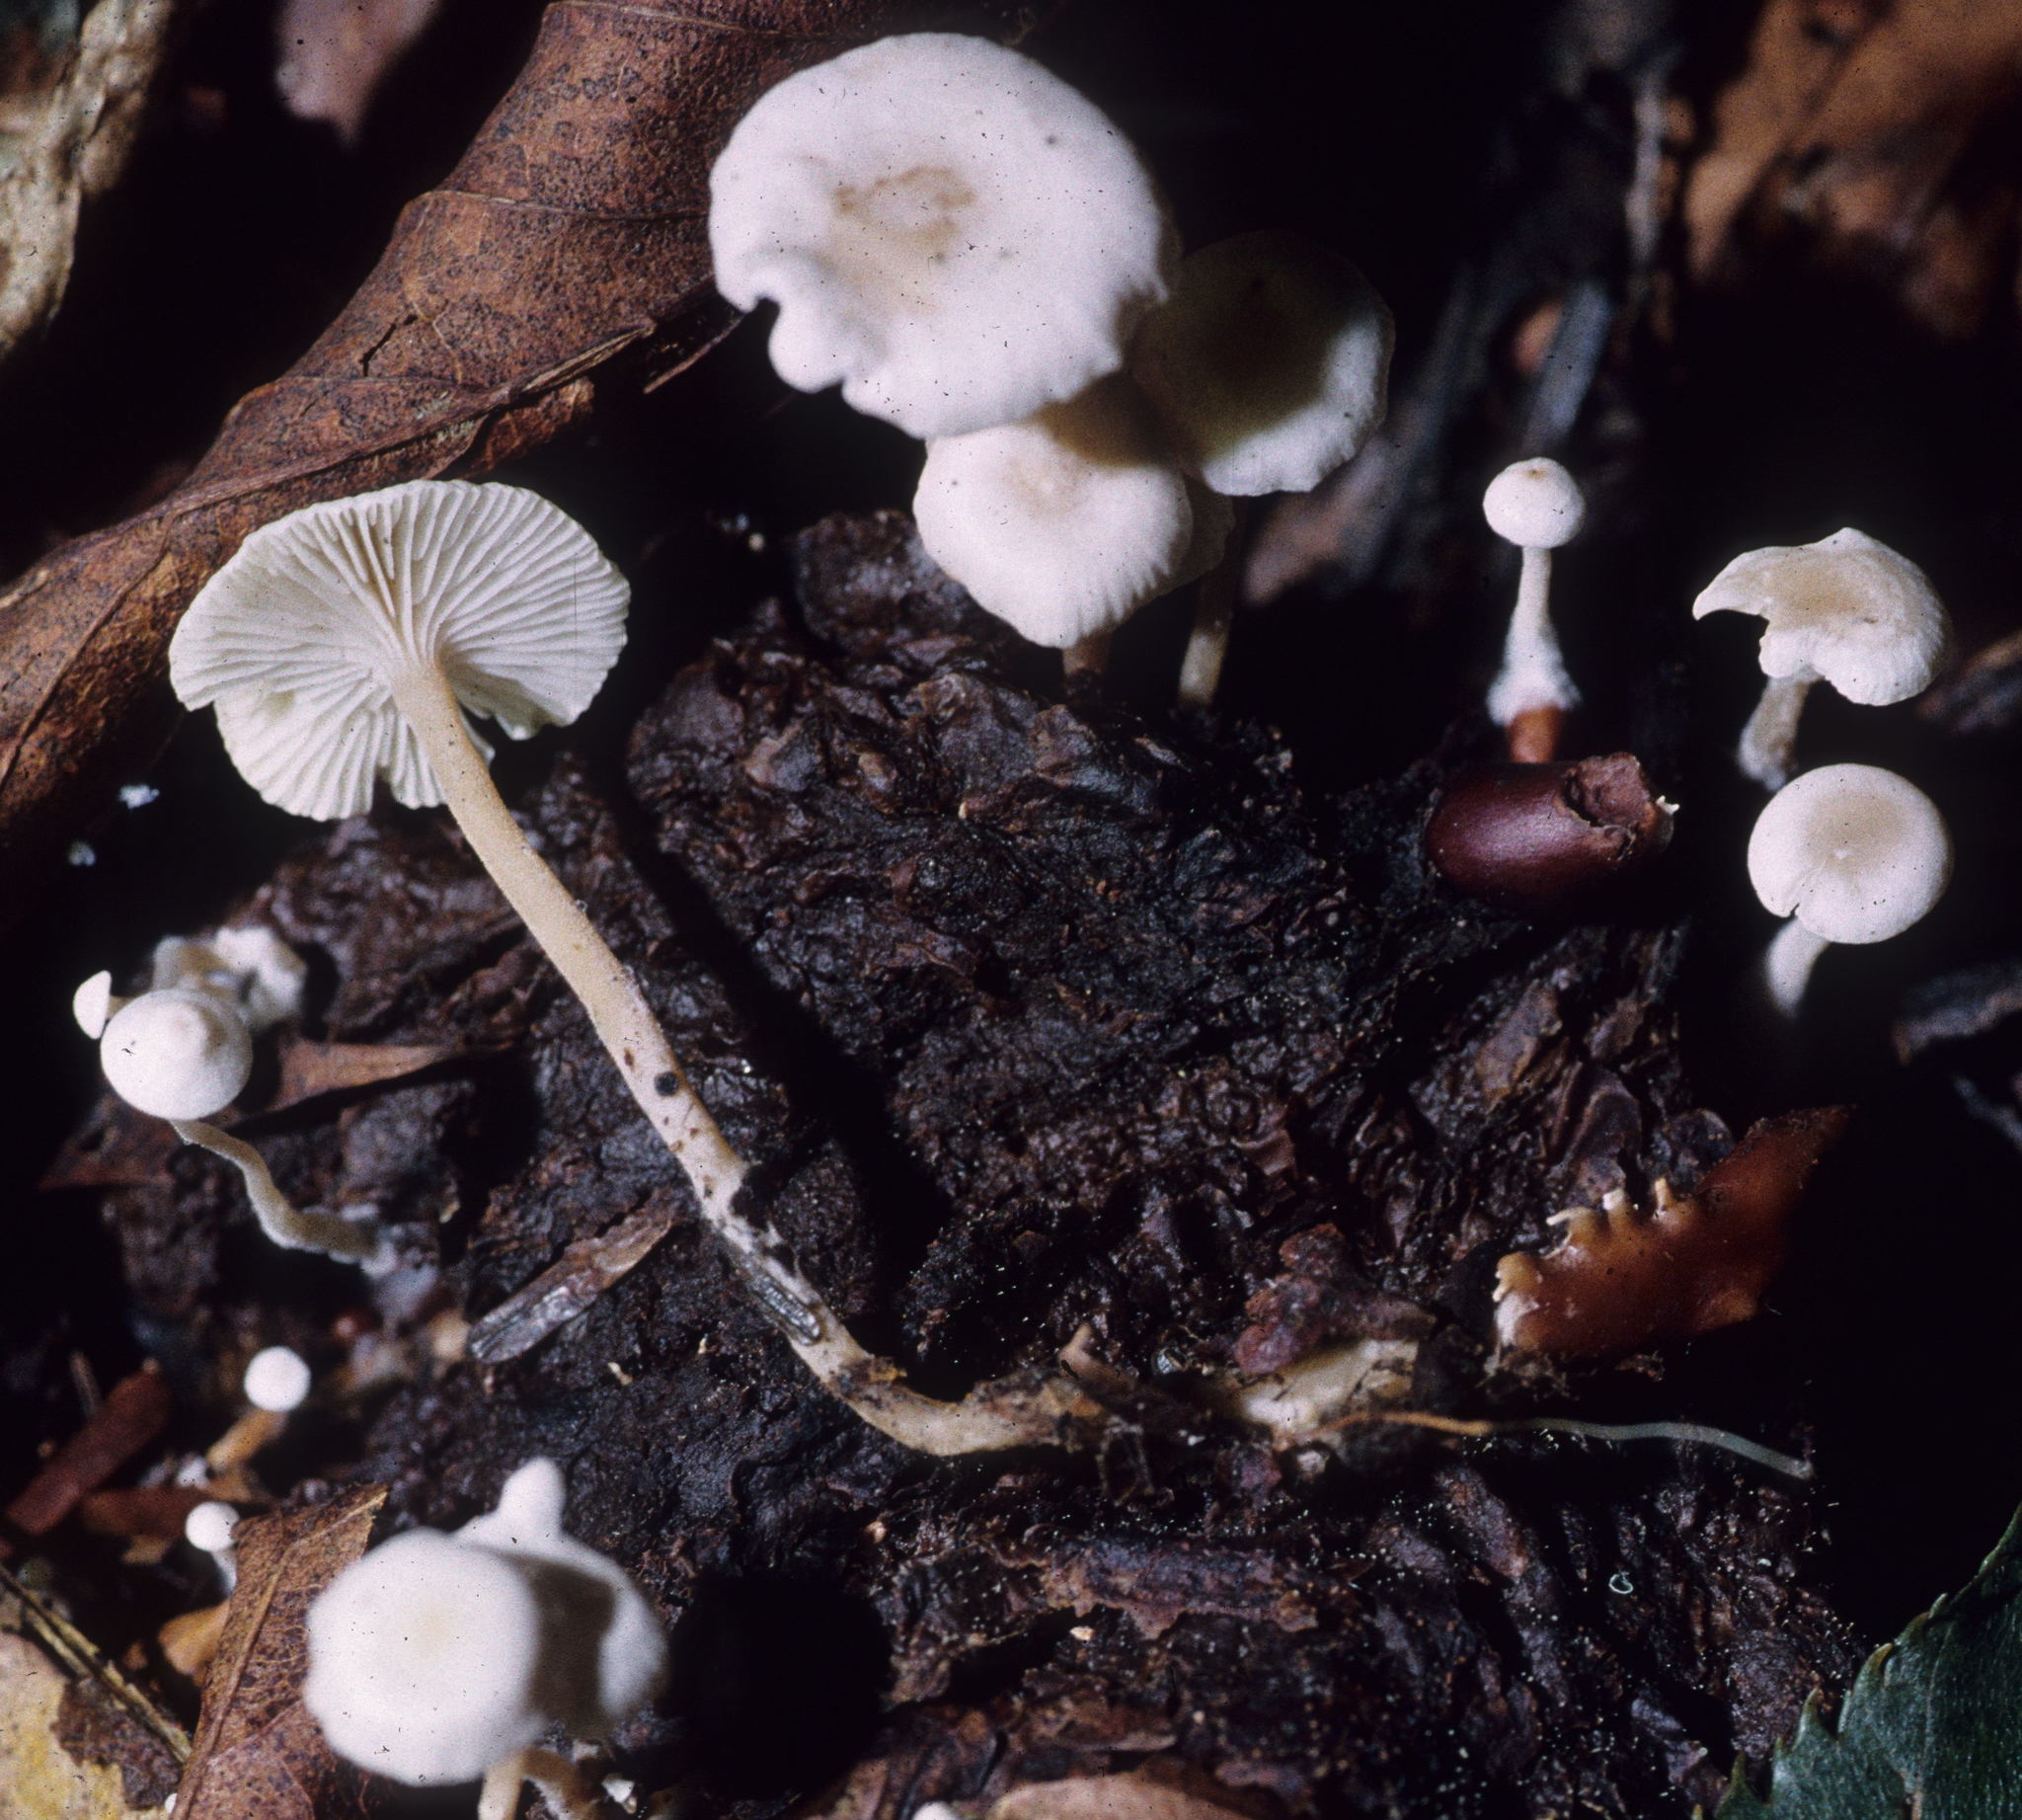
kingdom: Fungi
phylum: Basidiomycota
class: Agaricomycetes
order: Agaricales
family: Tricholomataceae
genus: Collybia
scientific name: Collybia tuberosa
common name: Lentil shanklet
